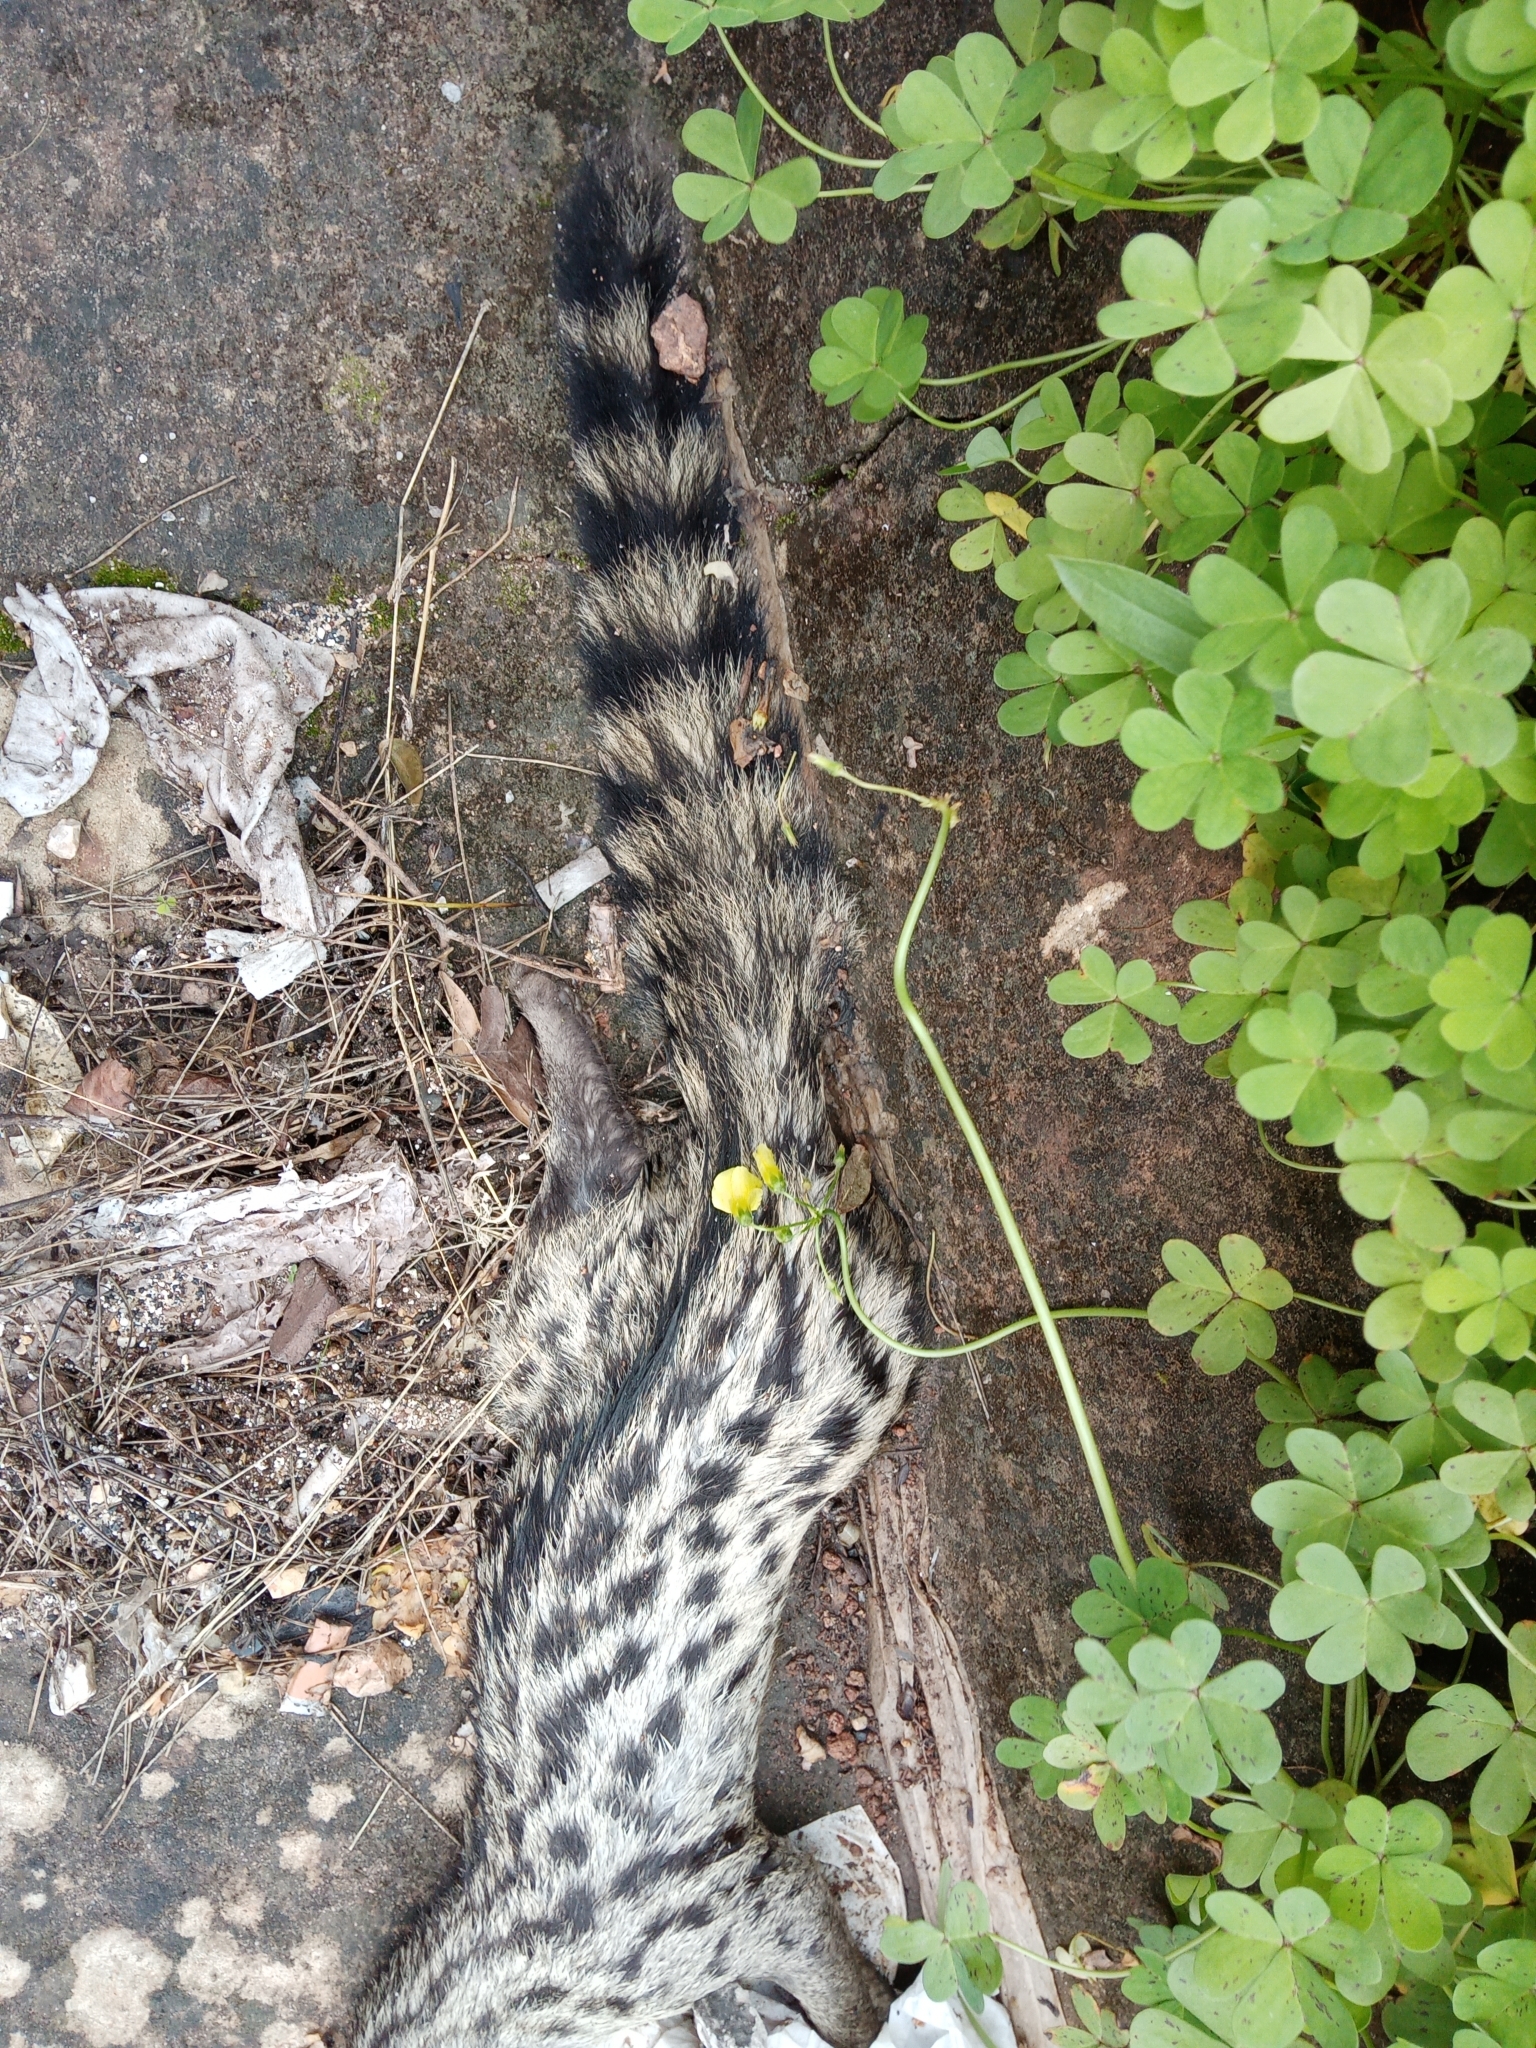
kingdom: Animalia
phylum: Chordata
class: Mammalia
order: Carnivora
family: Viverridae
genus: Genetta
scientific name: Genetta genetta
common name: Common genet
